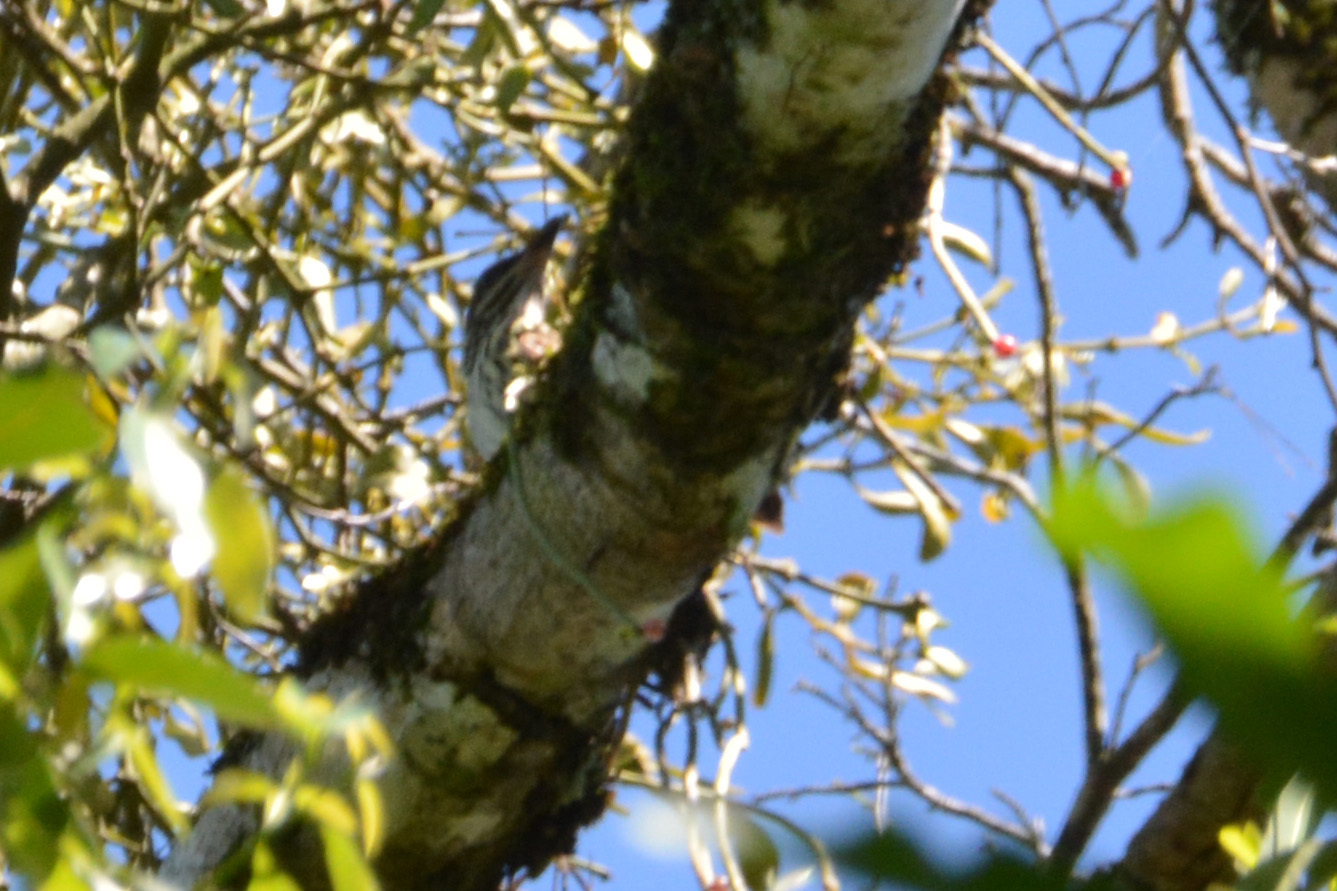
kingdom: Animalia
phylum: Chordata
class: Aves
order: Passeriformes
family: Tyrannidae
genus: Myiodynastes
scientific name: Myiodynastes maculatus
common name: Streaked flycatcher
